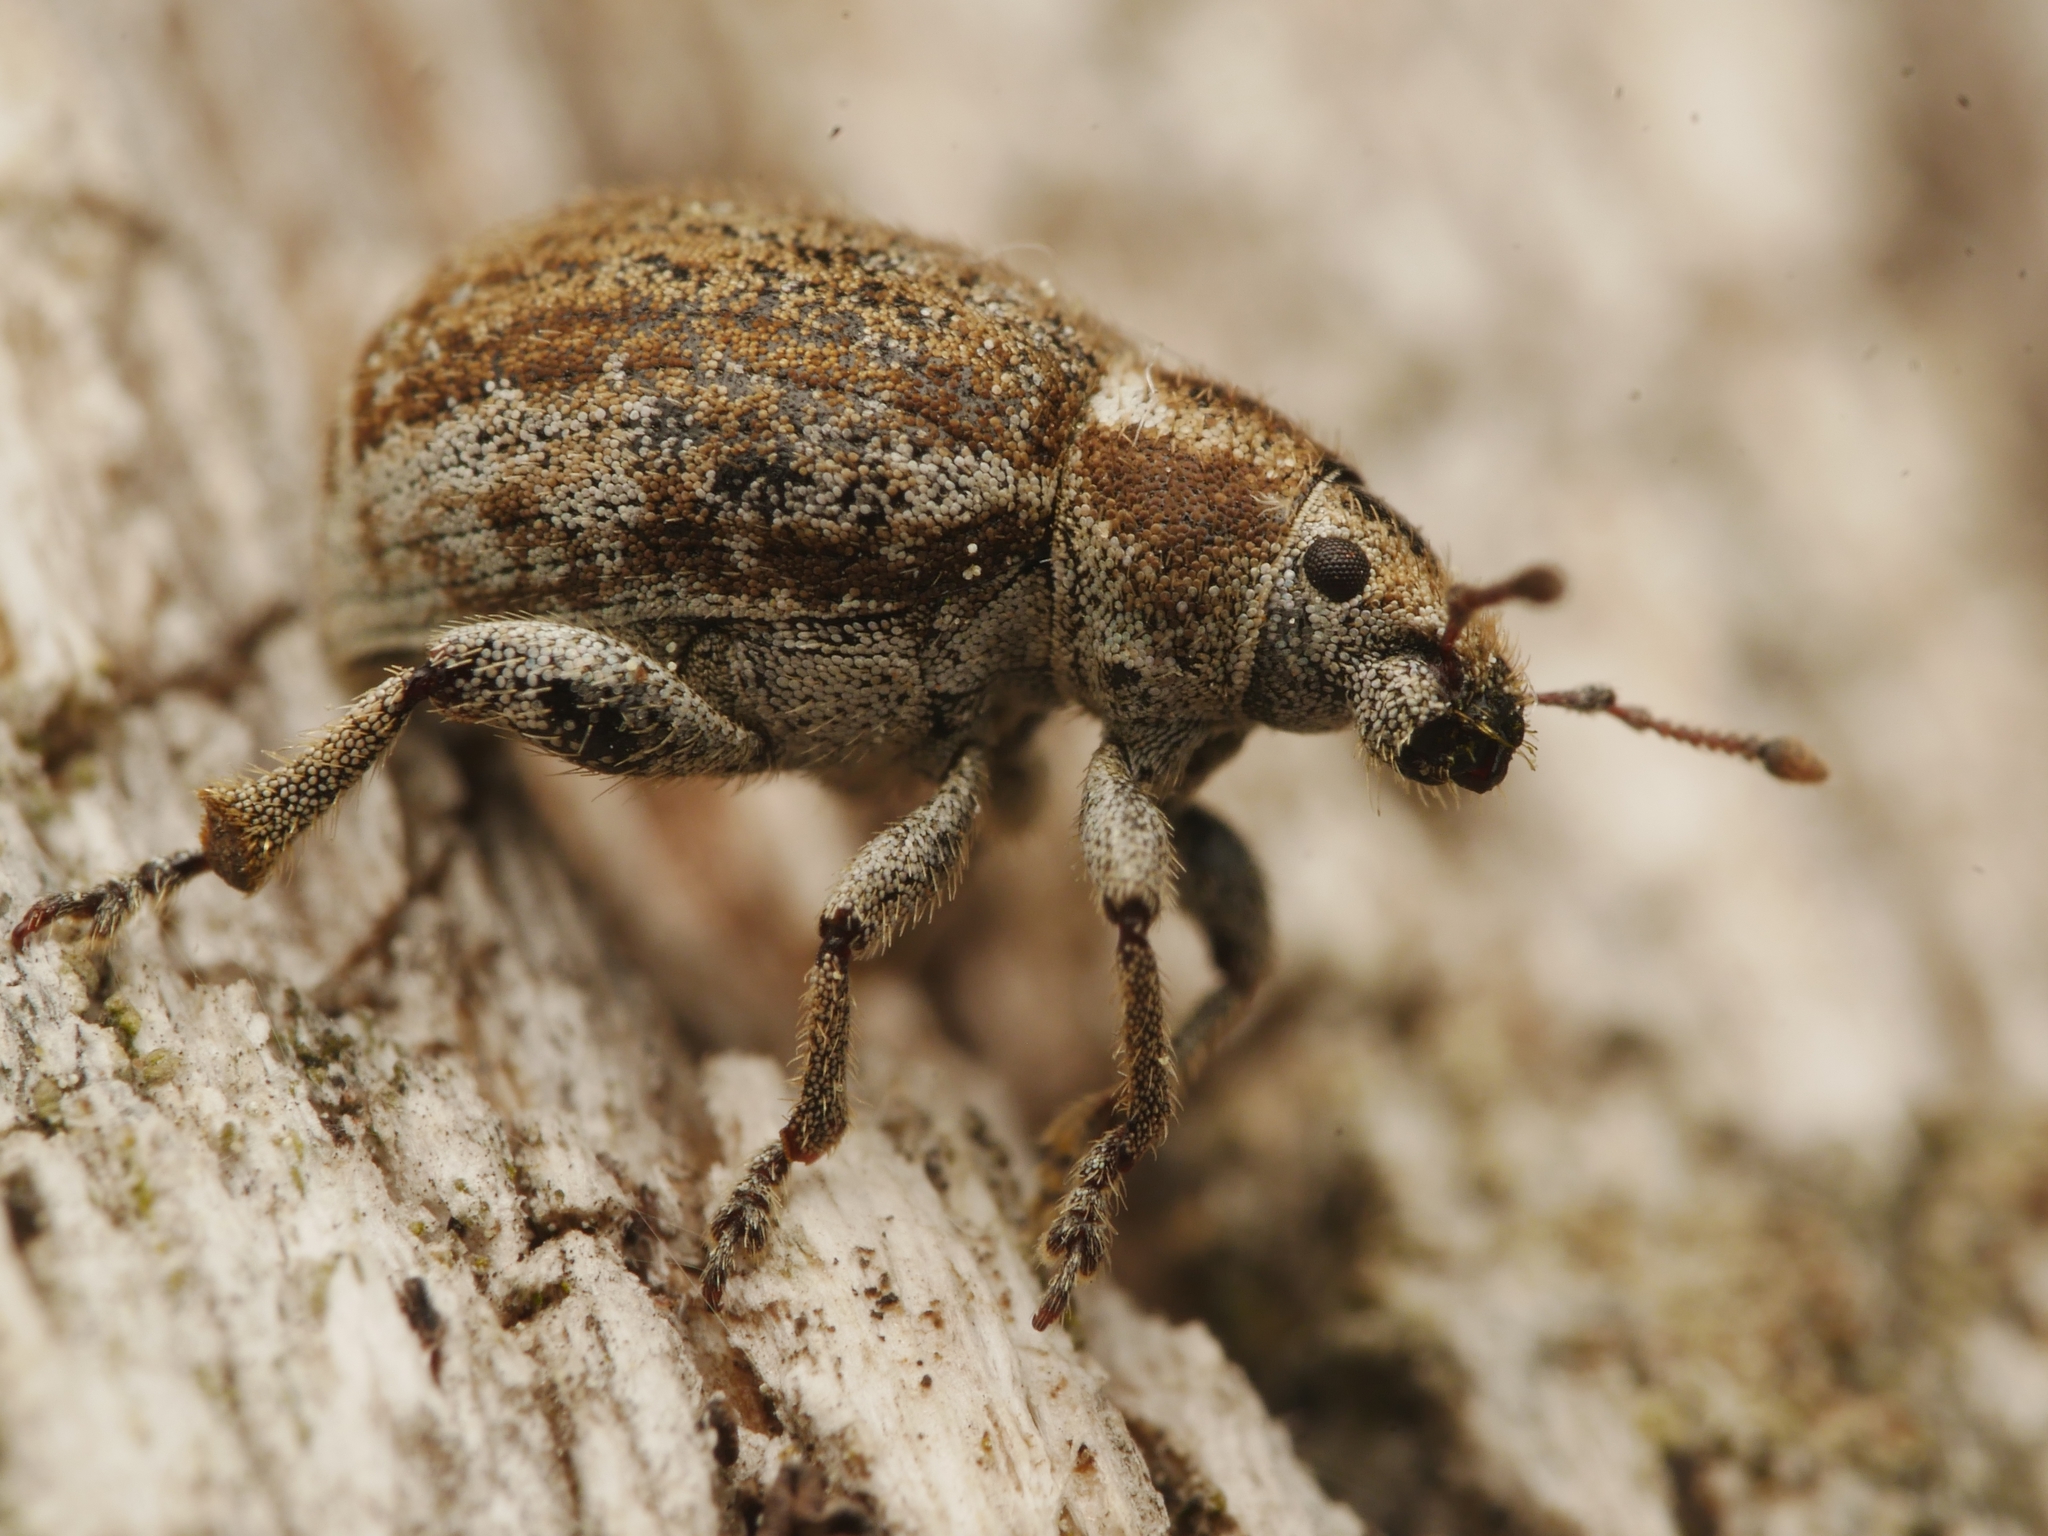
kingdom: Animalia
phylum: Arthropoda
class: Insecta
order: Coleoptera
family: Curculionidae
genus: Philopedon
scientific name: Philopedon plagiatum
